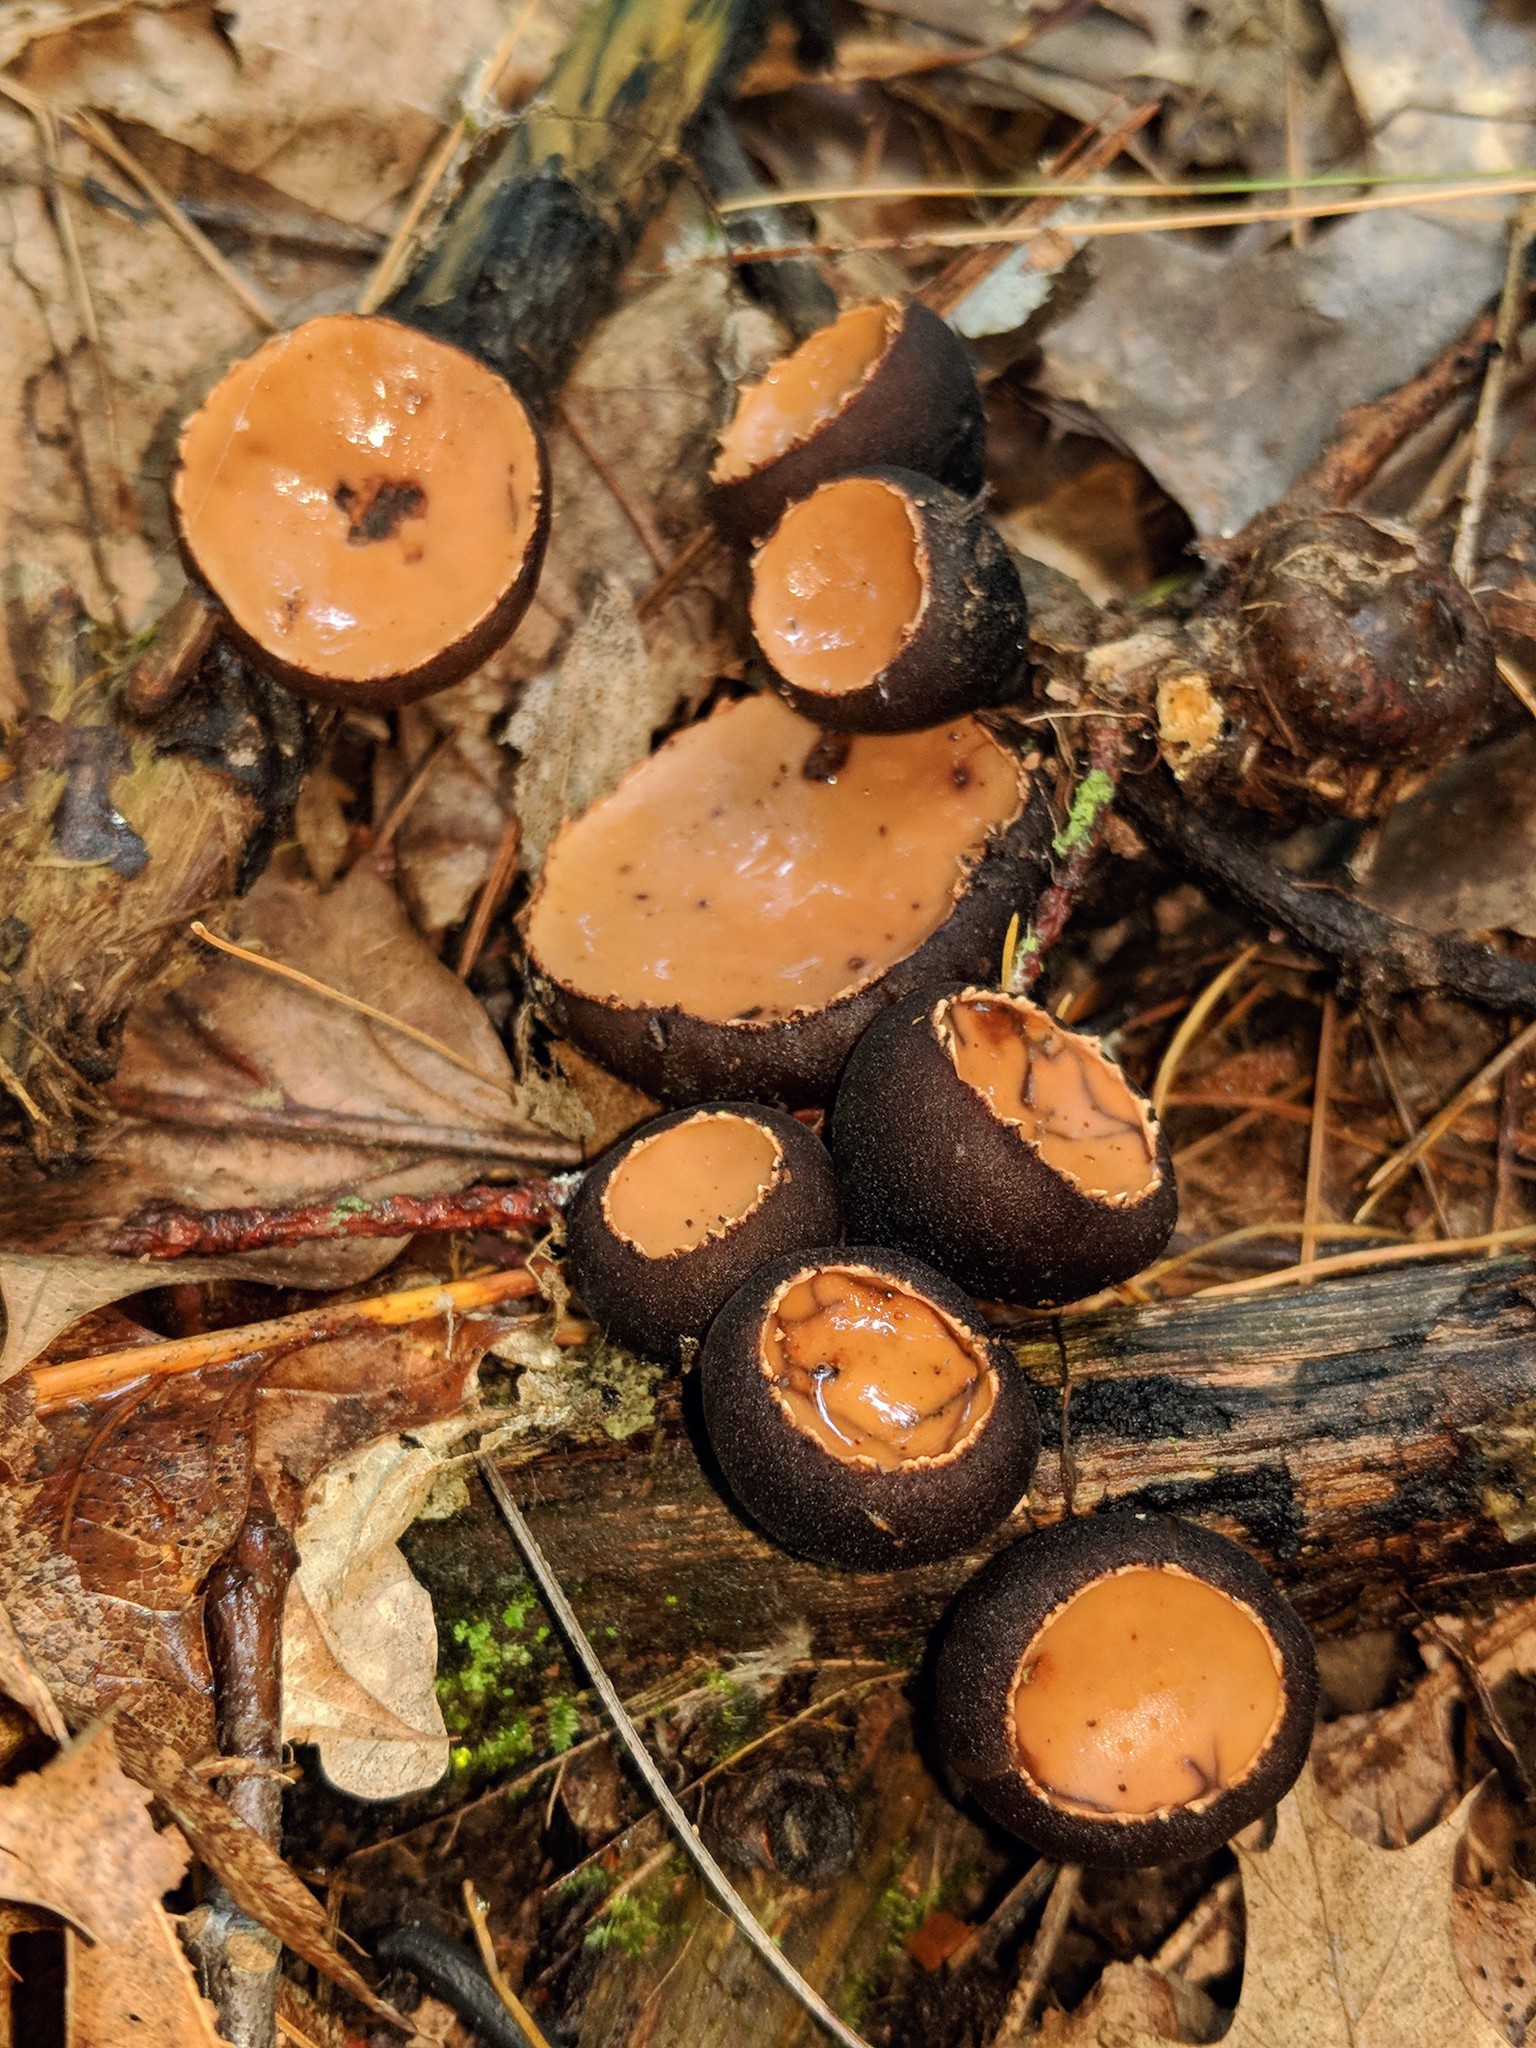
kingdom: Fungi
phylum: Ascomycota
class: Pezizomycetes
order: Pezizales
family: Sarcosomataceae
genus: Galiella
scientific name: Galiella rufa
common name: Hairy rubber cup
